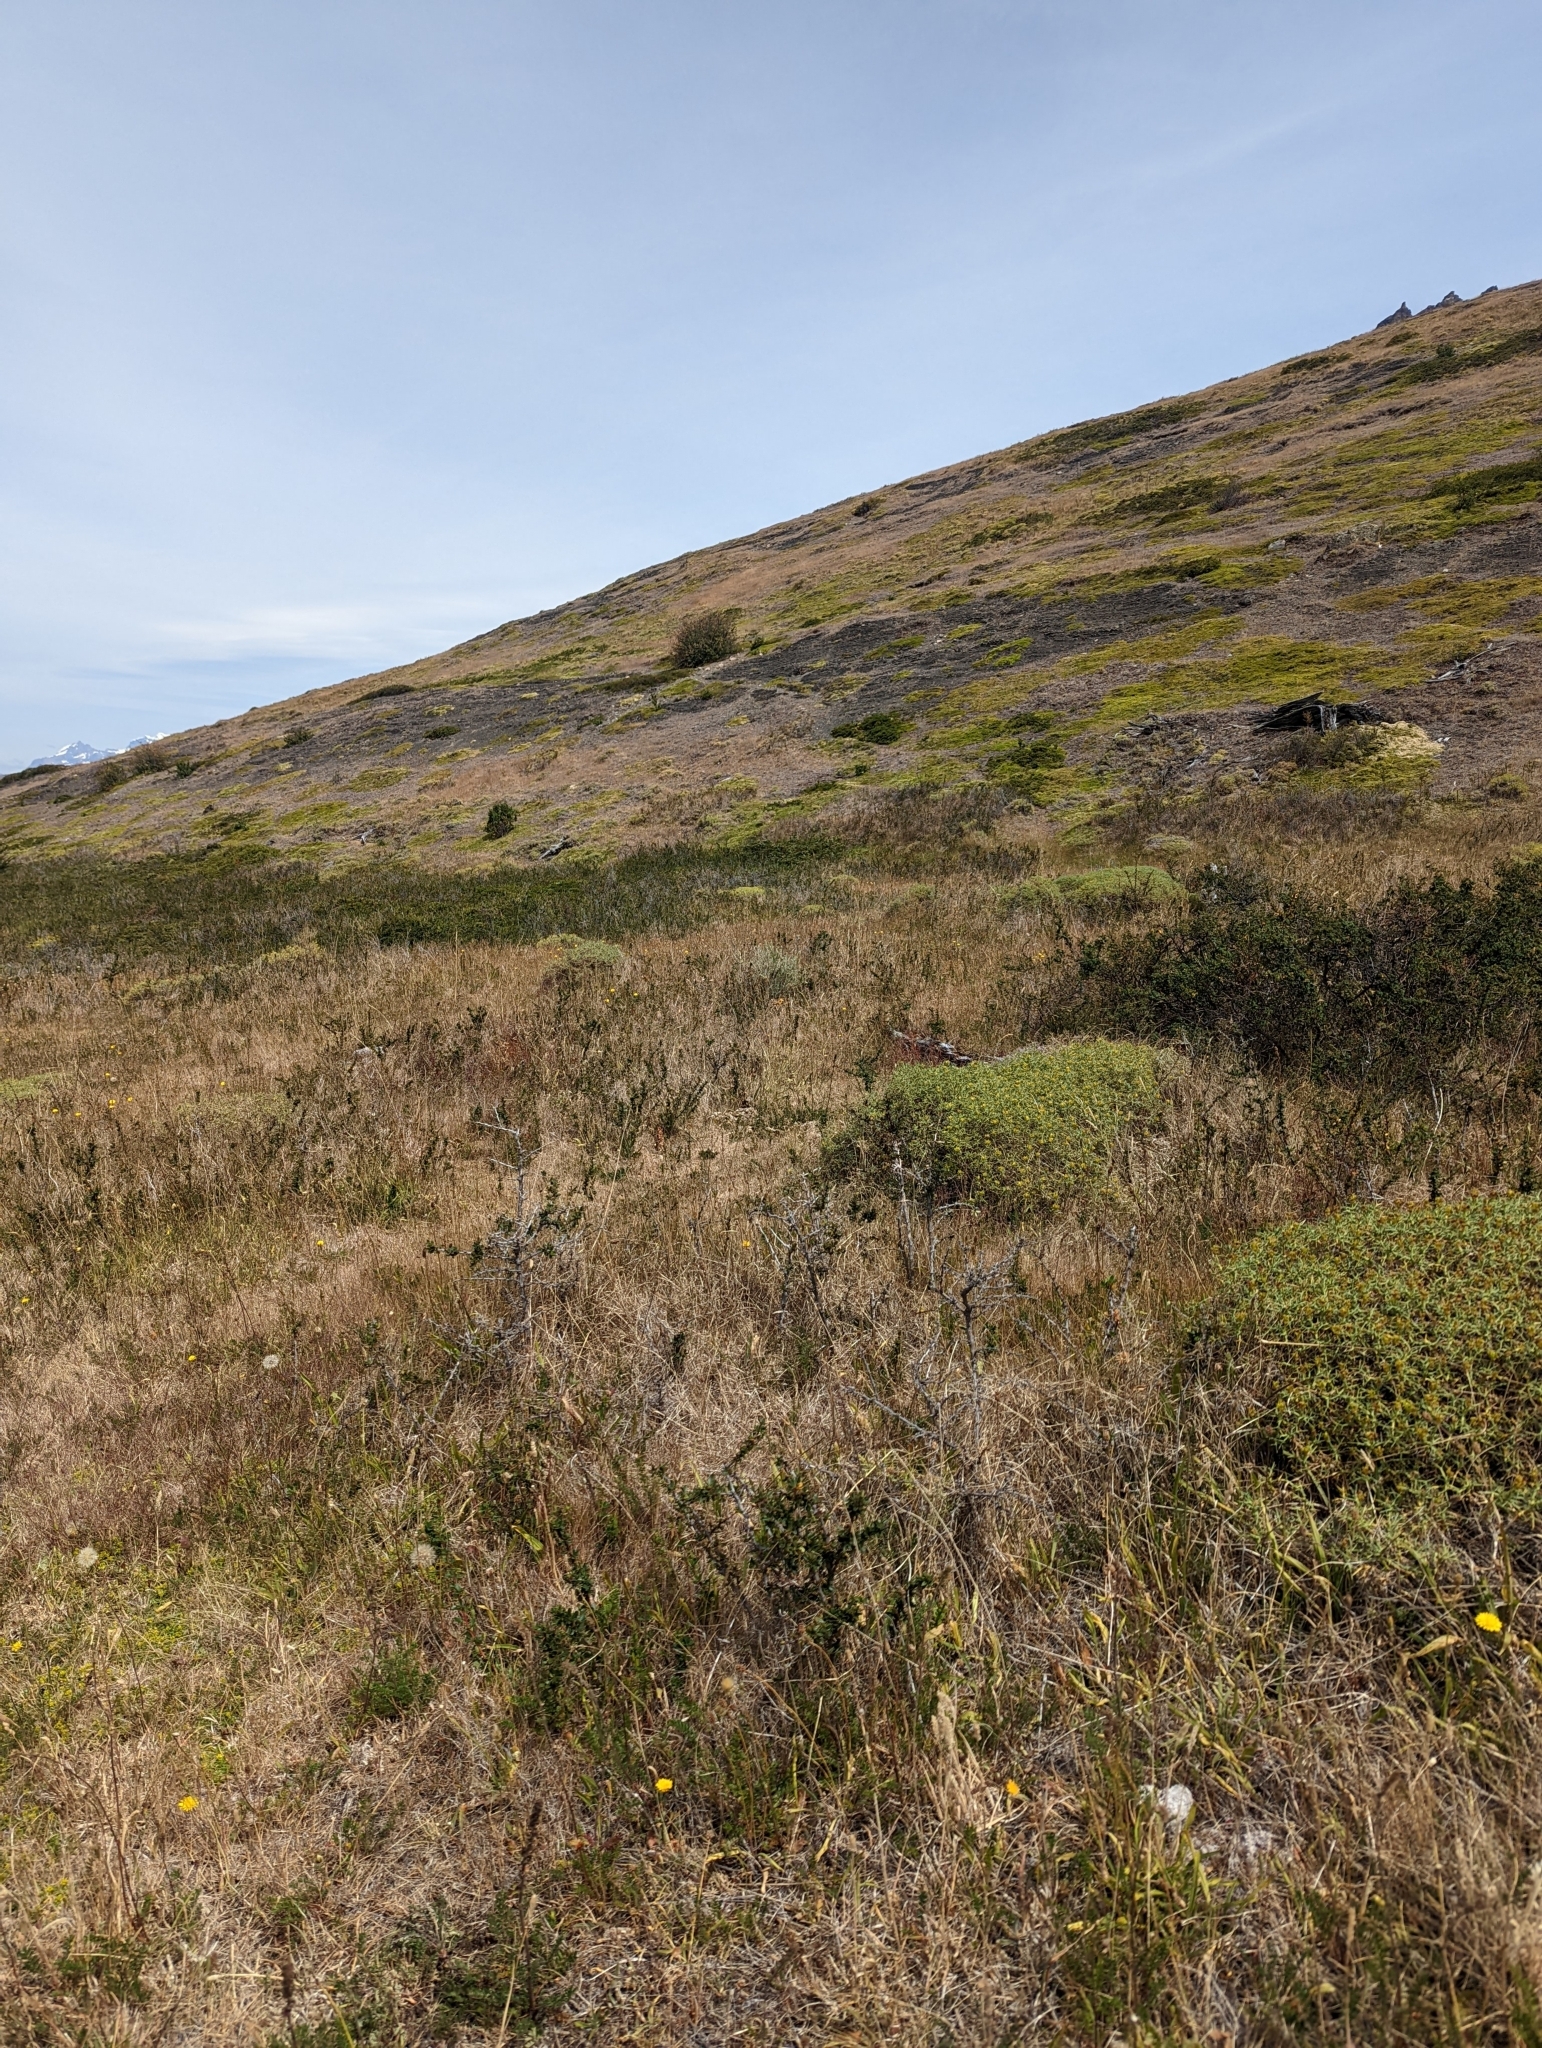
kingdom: Plantae
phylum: Tracheophyta
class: Magnoliopsida
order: Apiales
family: Apiaceae
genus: Azorella
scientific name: Azorella trifurcata
